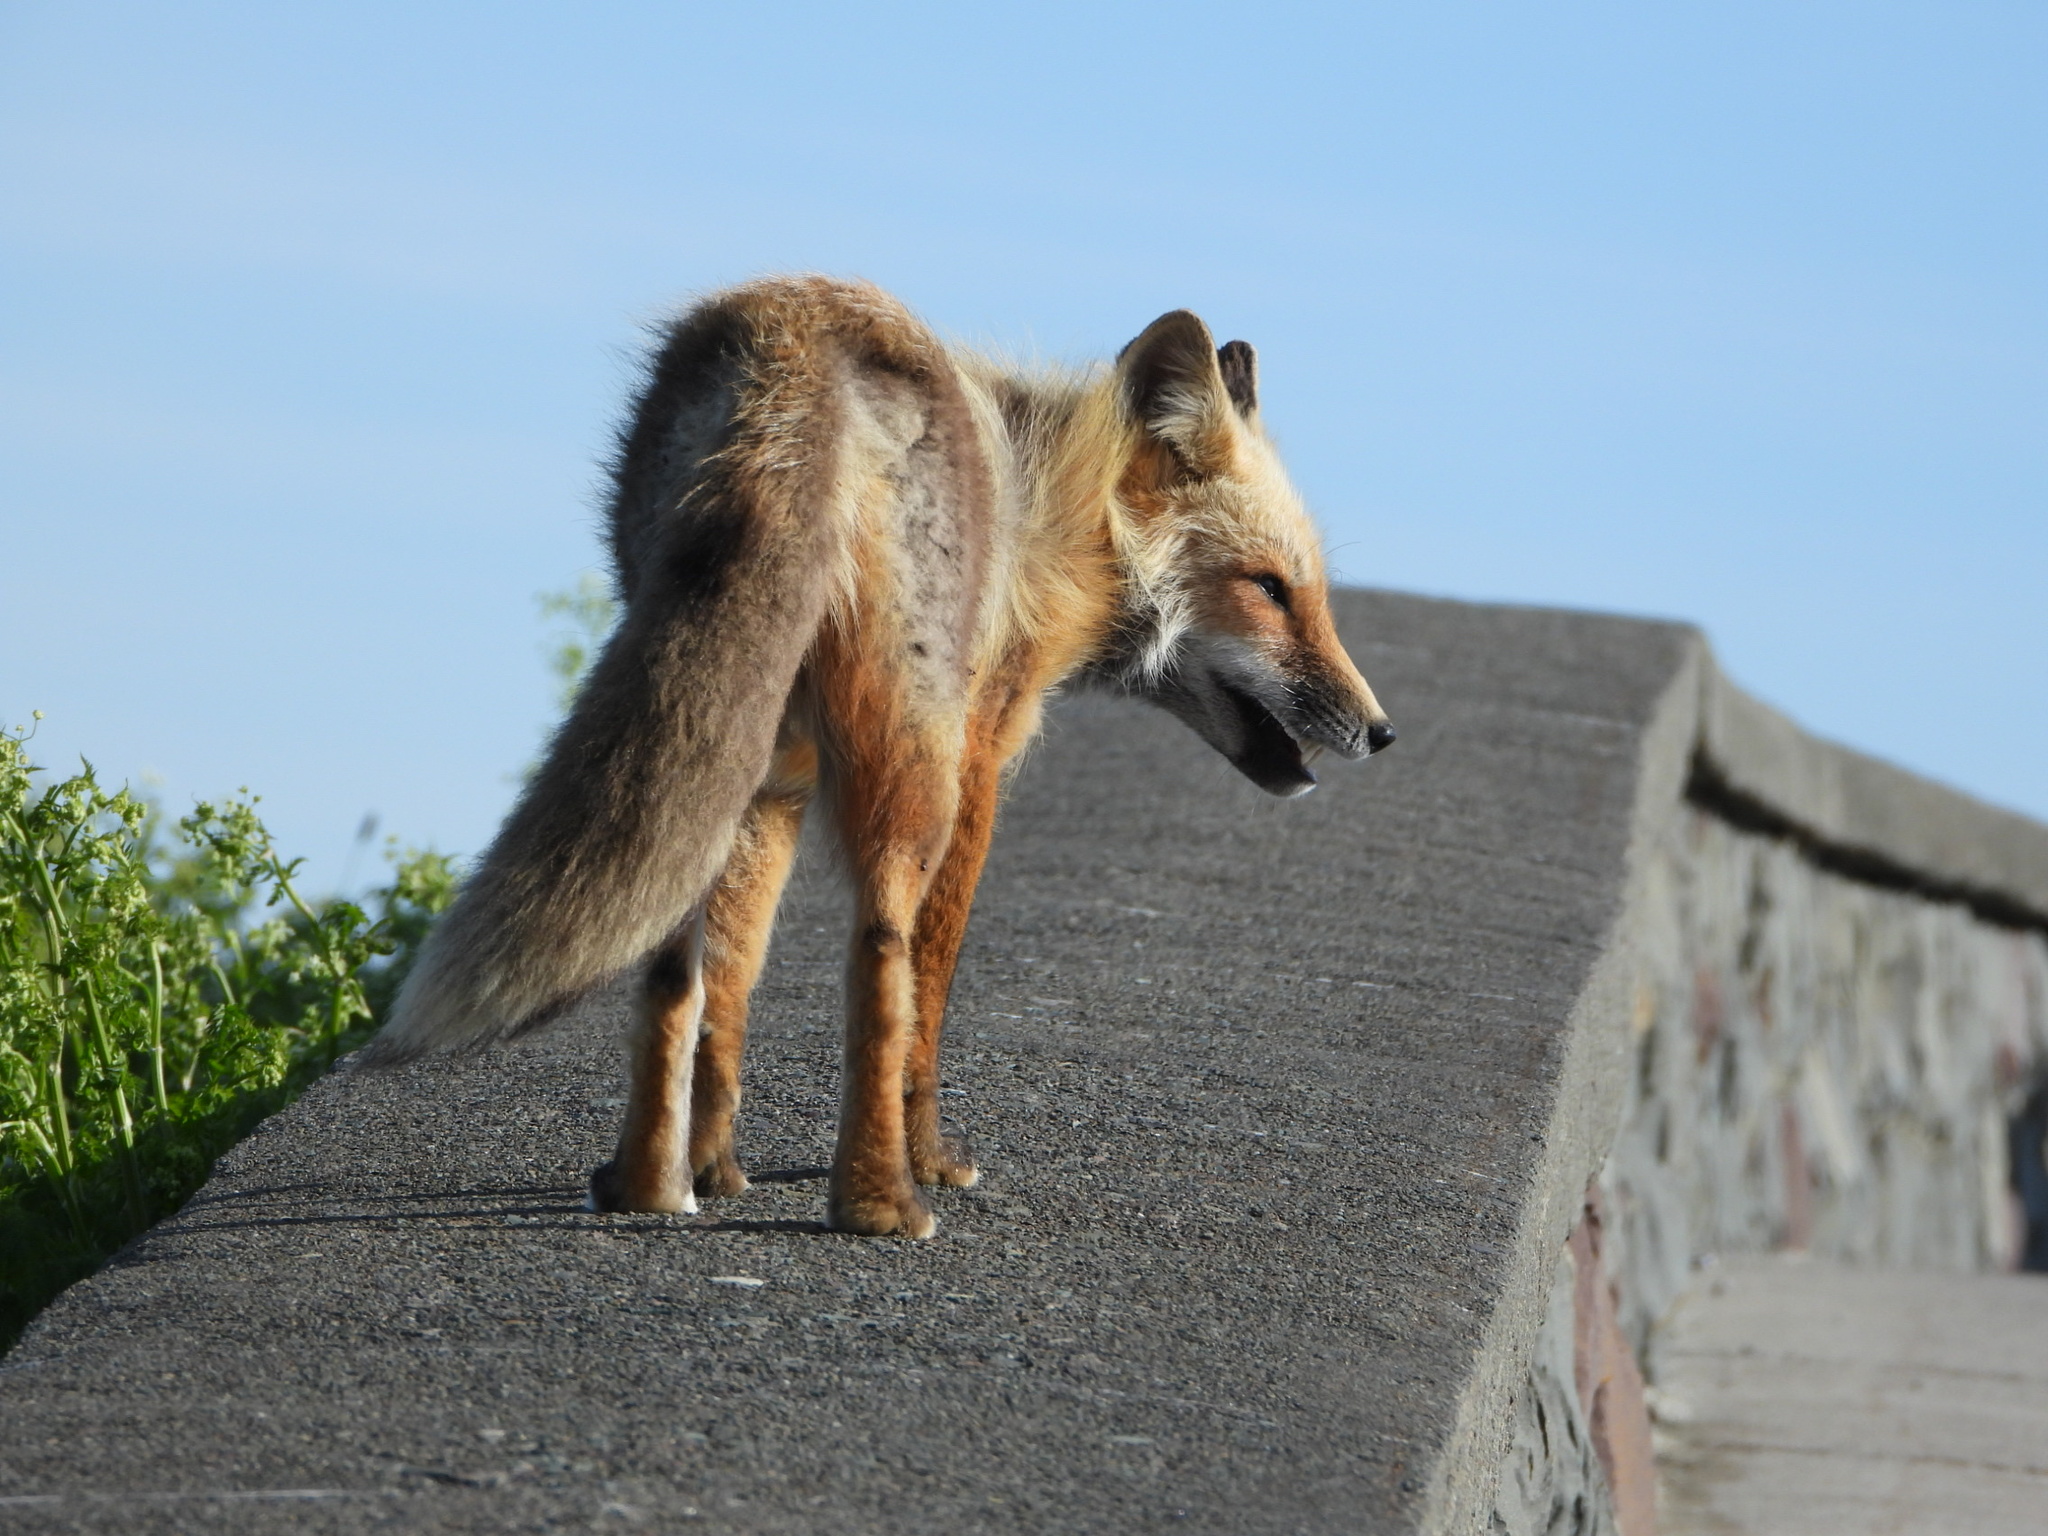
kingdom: Animalia
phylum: Chordata
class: Mammalia
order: Carnivora
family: Canidae
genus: Vulpes
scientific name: Vulpes vulpes
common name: Red fox
